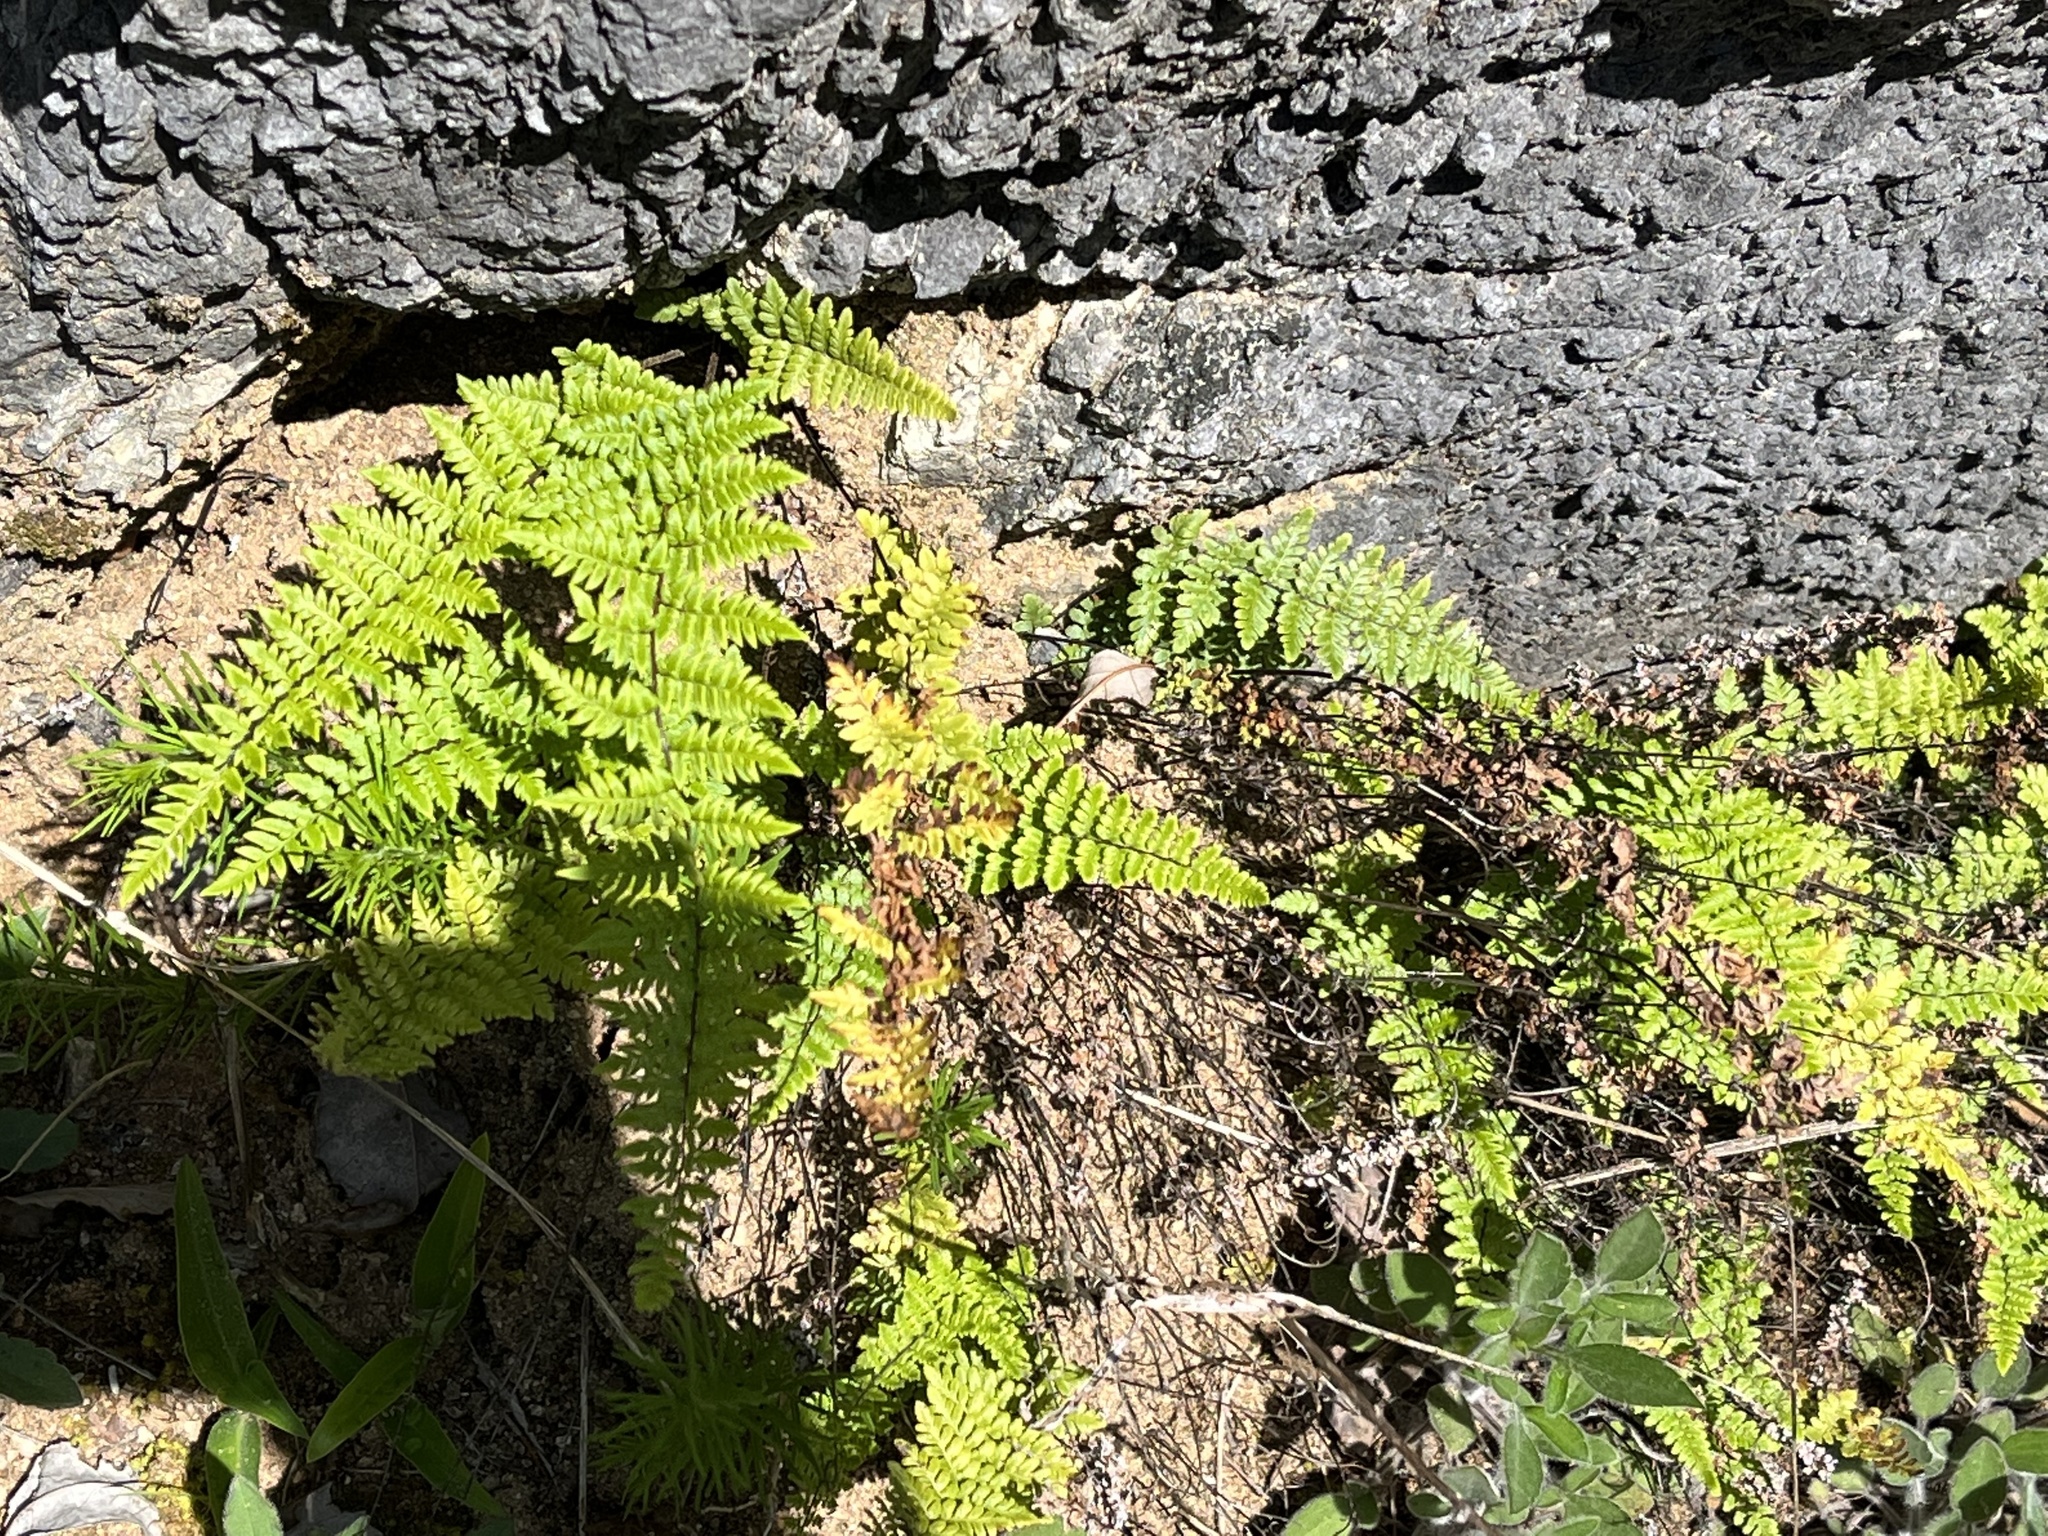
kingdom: Plantae
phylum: Tracheophyta
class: Polypodiopsida
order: Polypodiales
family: Pteridaceae
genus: Myriopteris
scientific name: Myriopteris alabamensis
